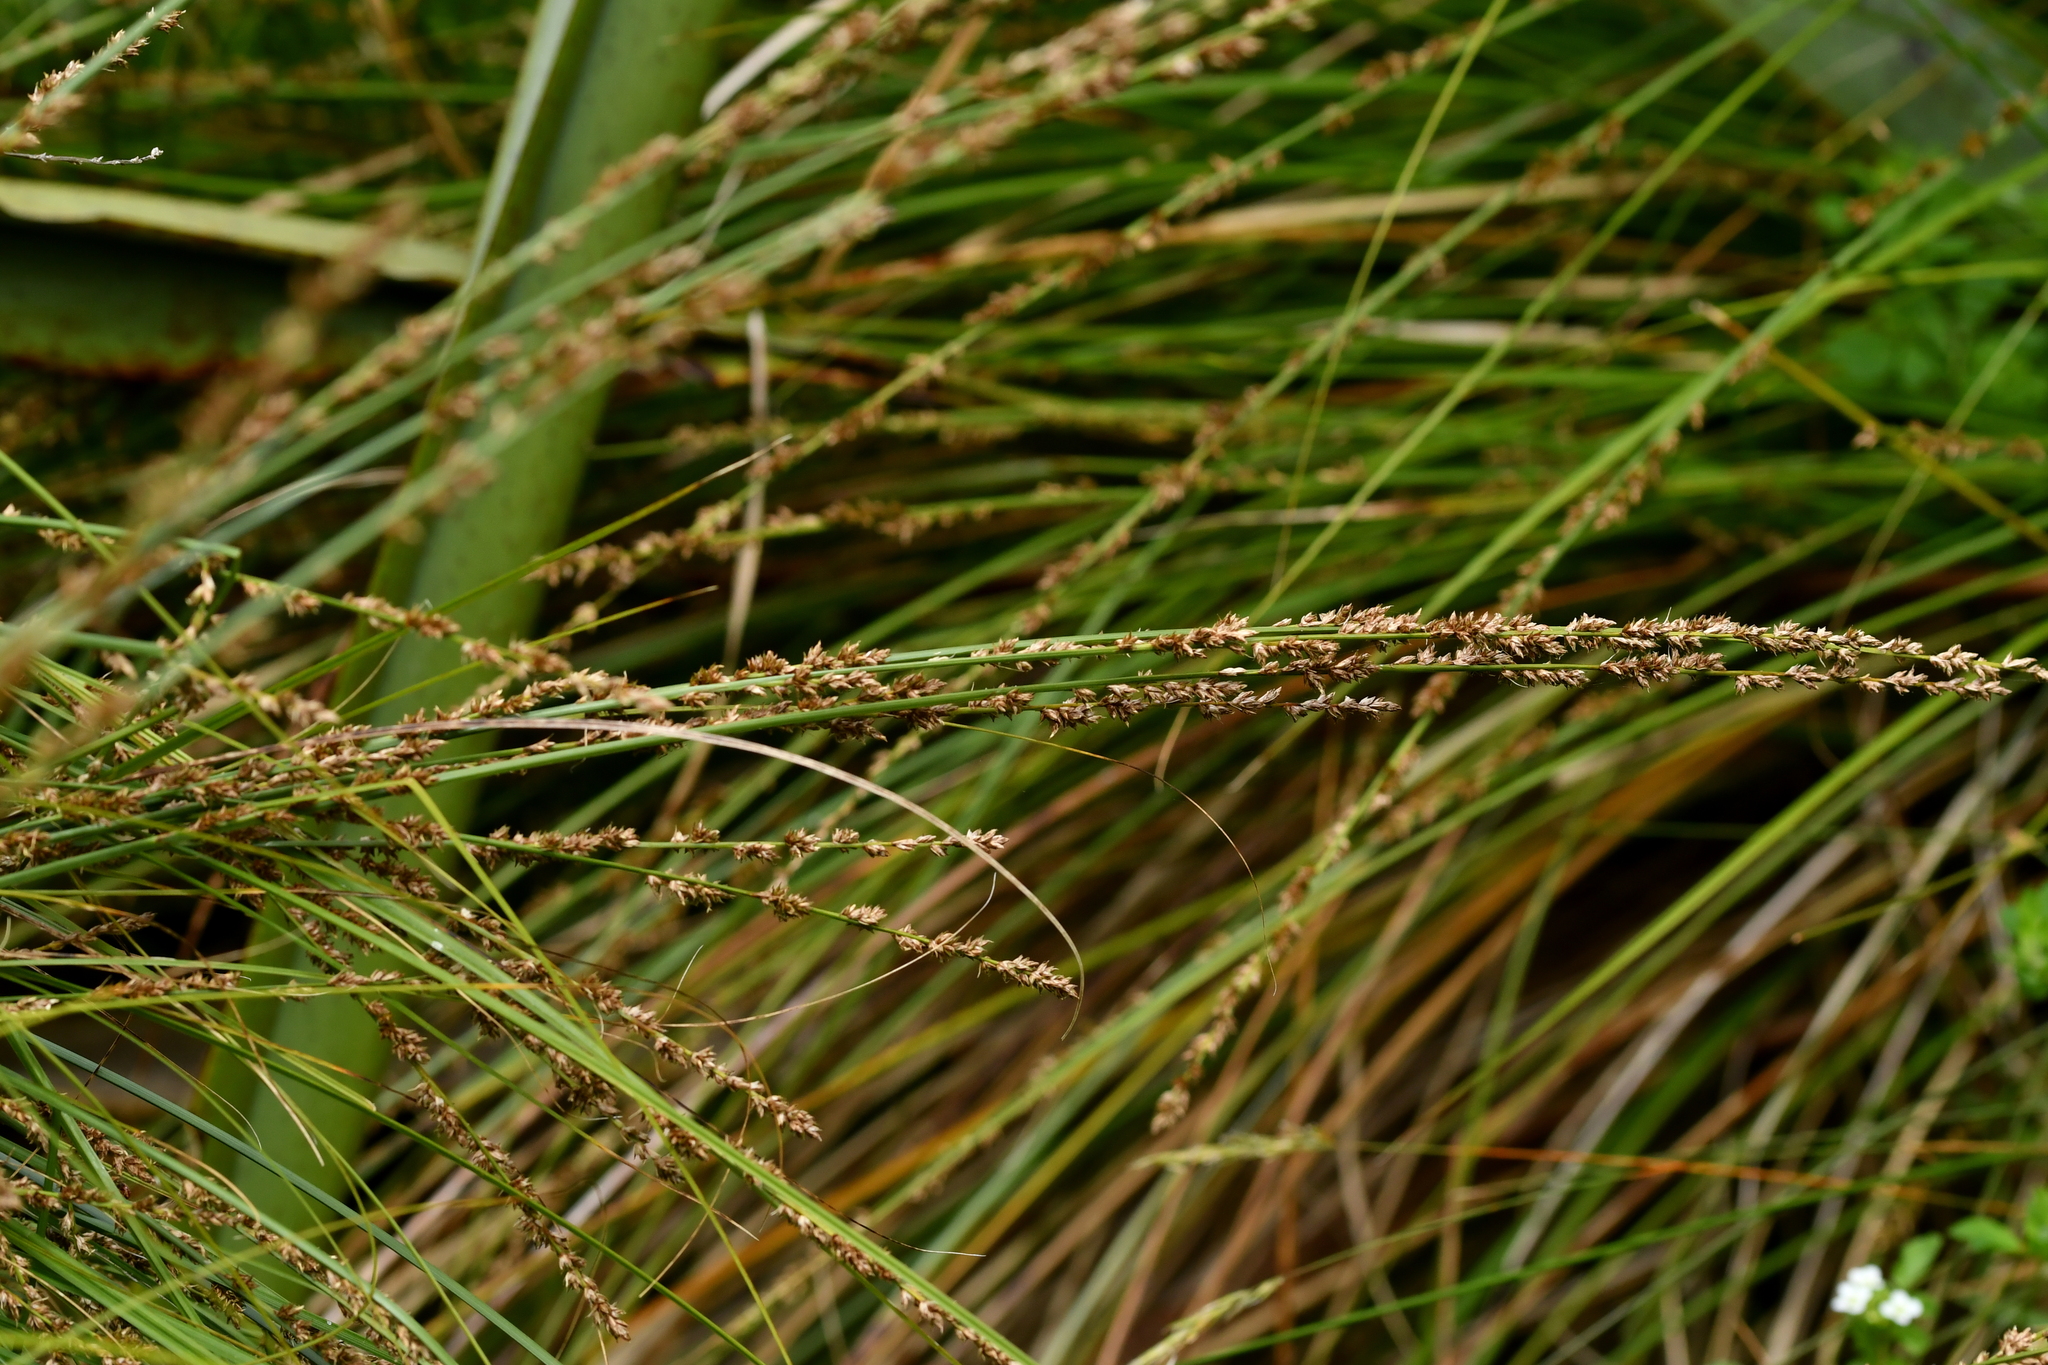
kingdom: Plantae
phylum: Tracheophyta
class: Liliopsida
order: Poales
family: Cyperaceae
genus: Carex
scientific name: Carex virgata
